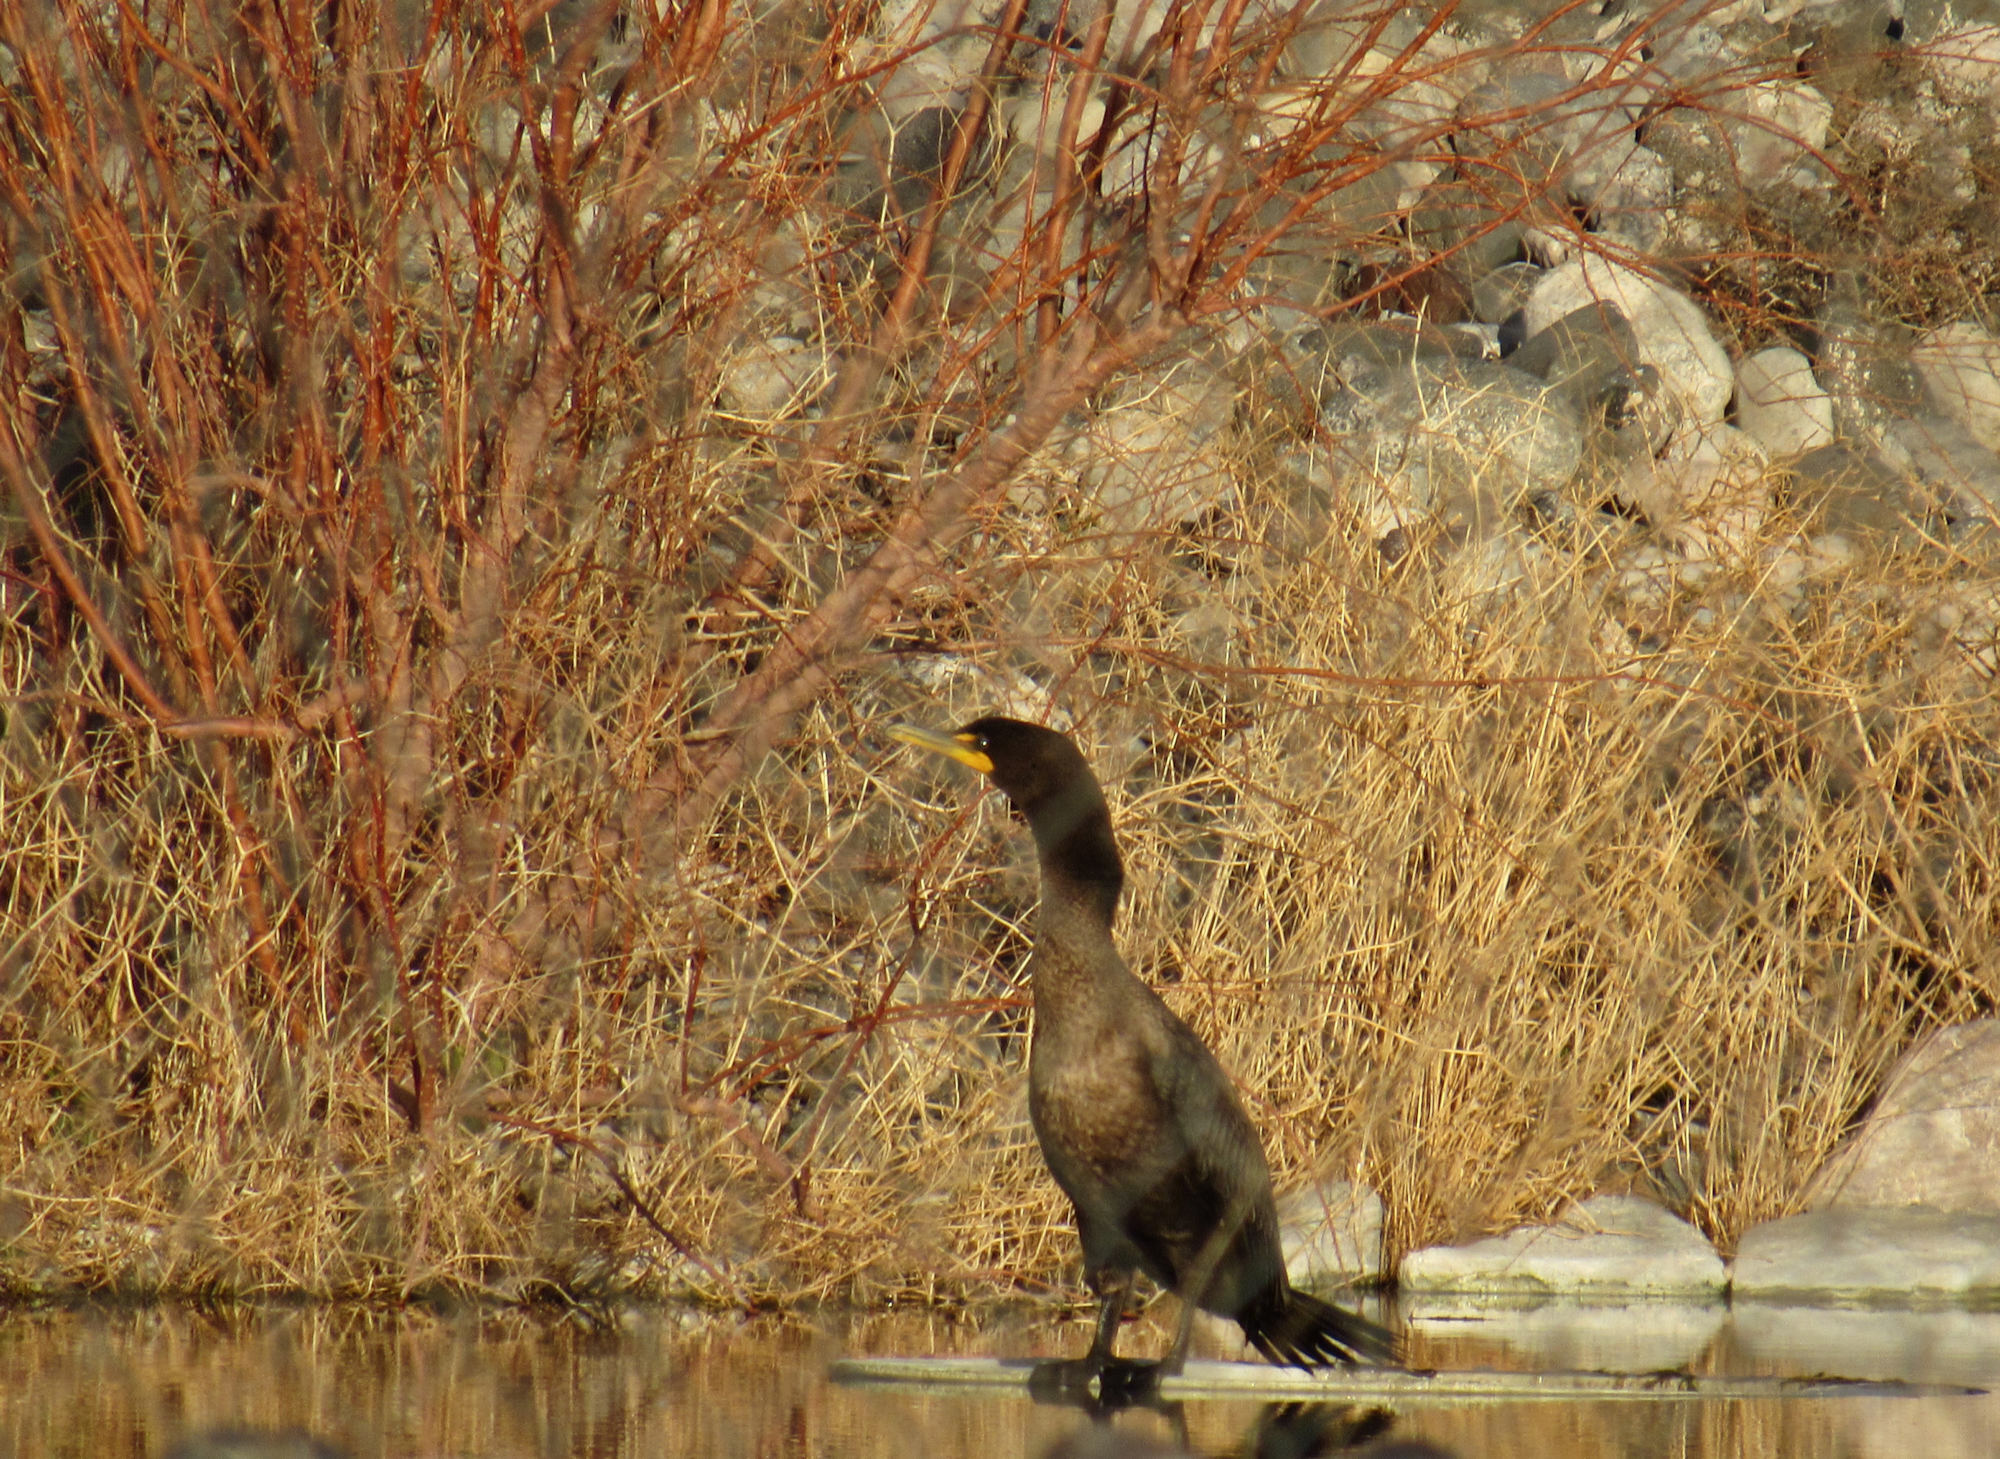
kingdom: Animalia
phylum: Chordata
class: Aves
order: Suliformes
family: Phalacrocoracidae
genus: Phalacrocorax
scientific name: Phalacrocorax auritus
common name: Double-crested cormorant
